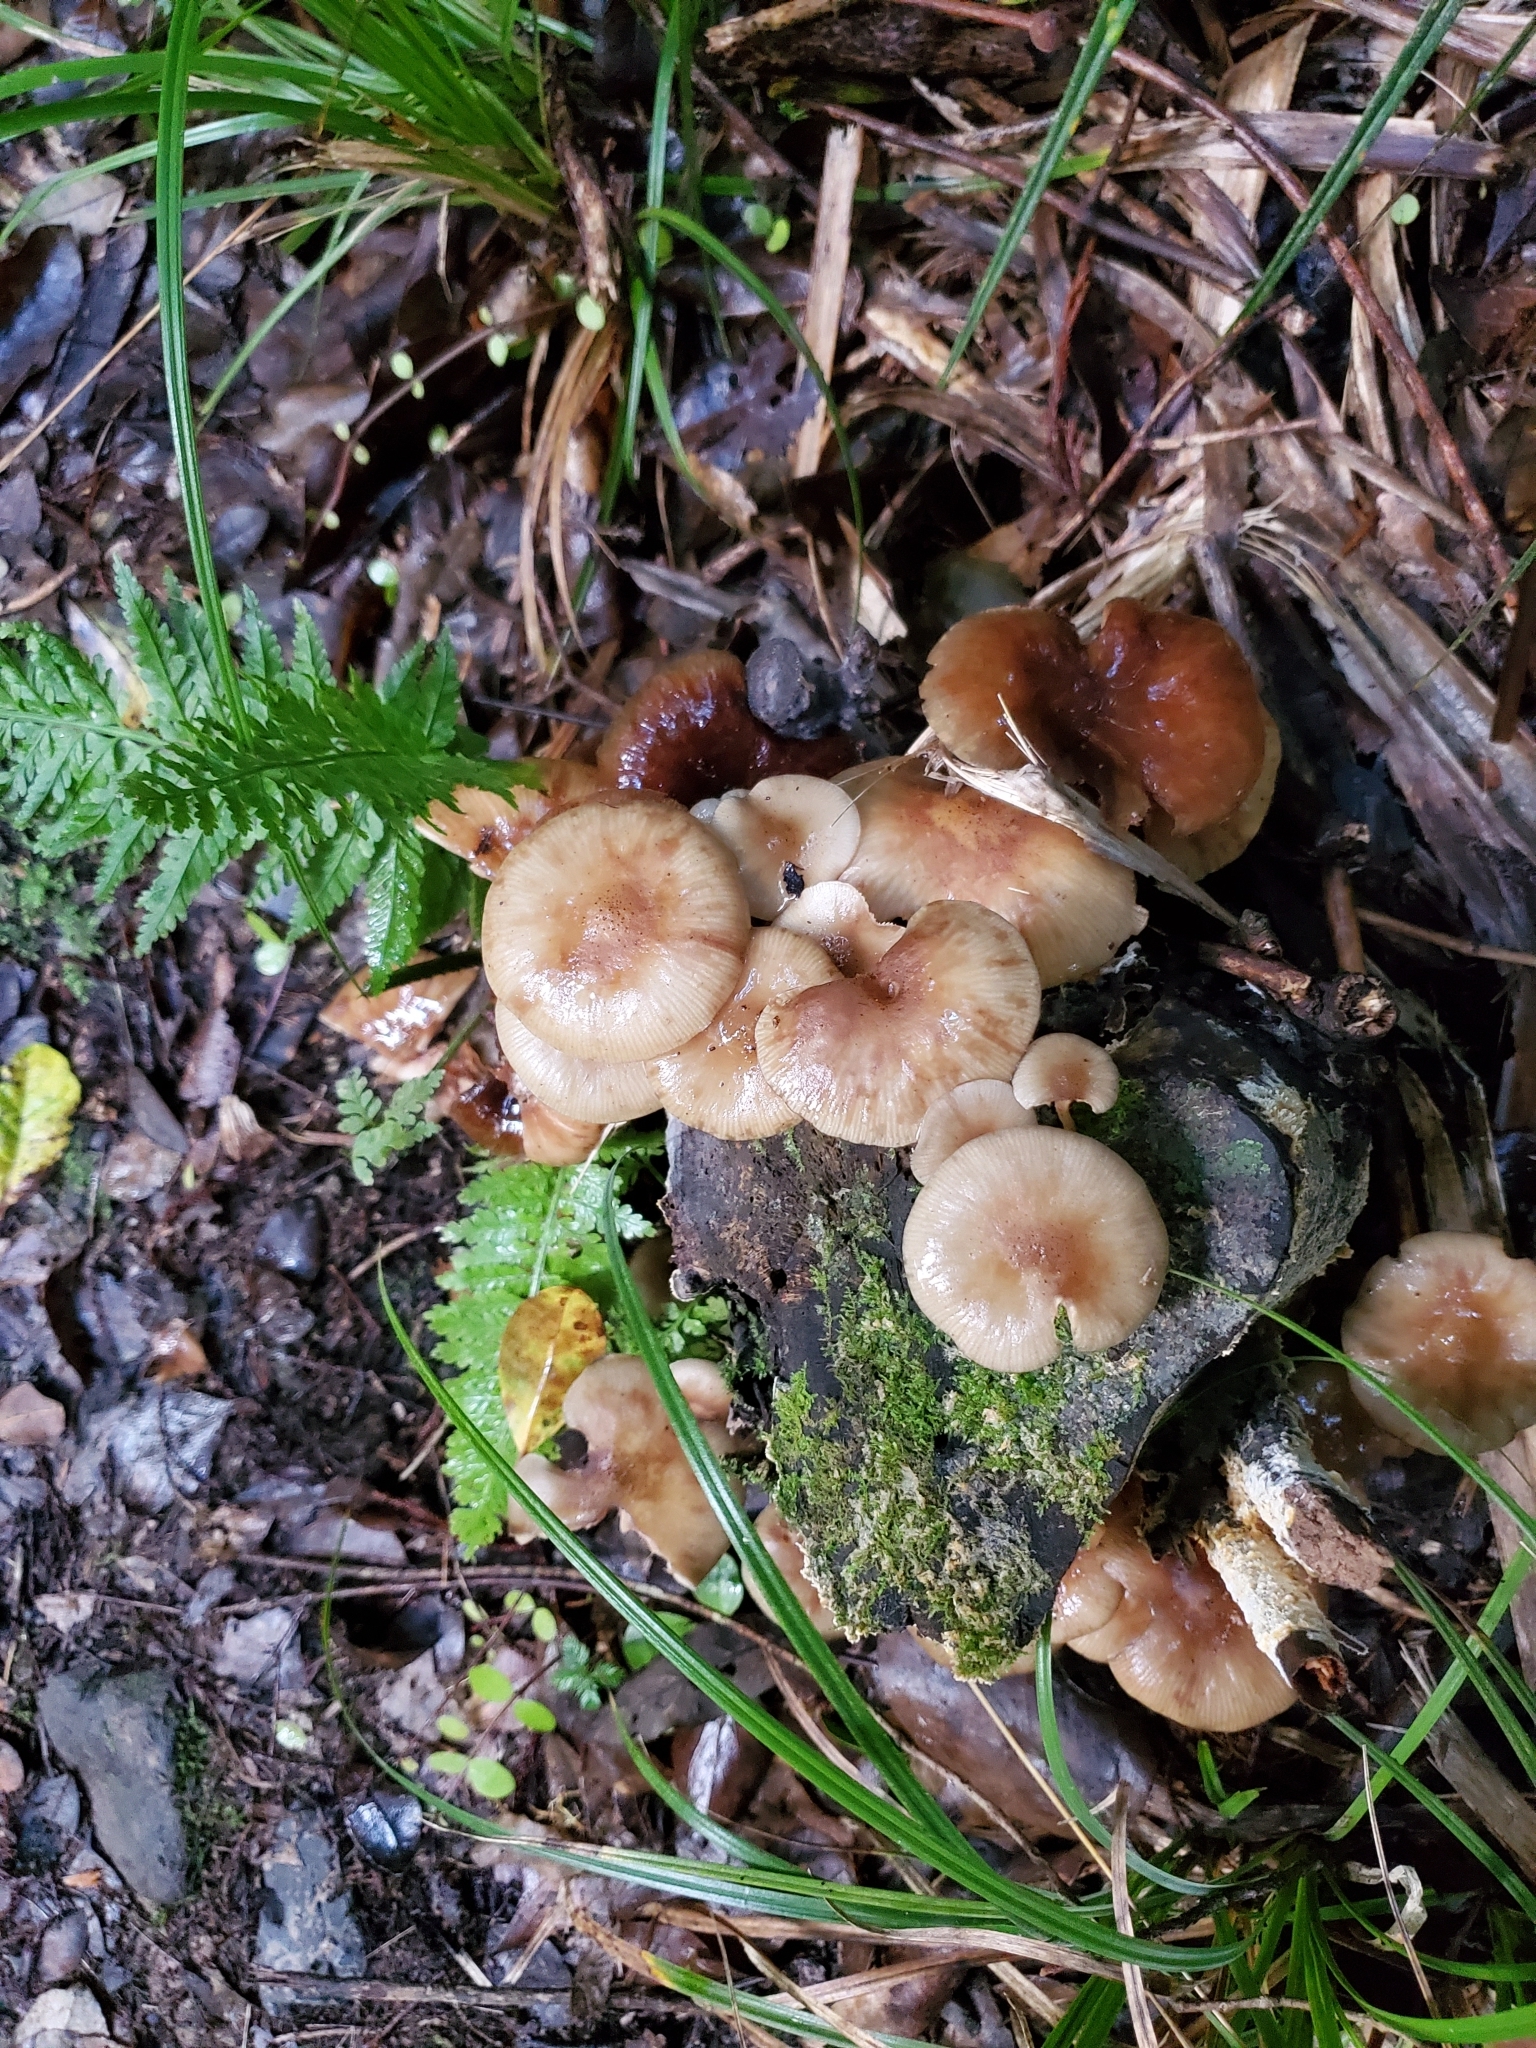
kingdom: Fungi
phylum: Basidiomycota
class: Agaricomycetes
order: Agaricales
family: Physalacriaceae
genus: Armillaria
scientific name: Armillaria novae-zelandiae
